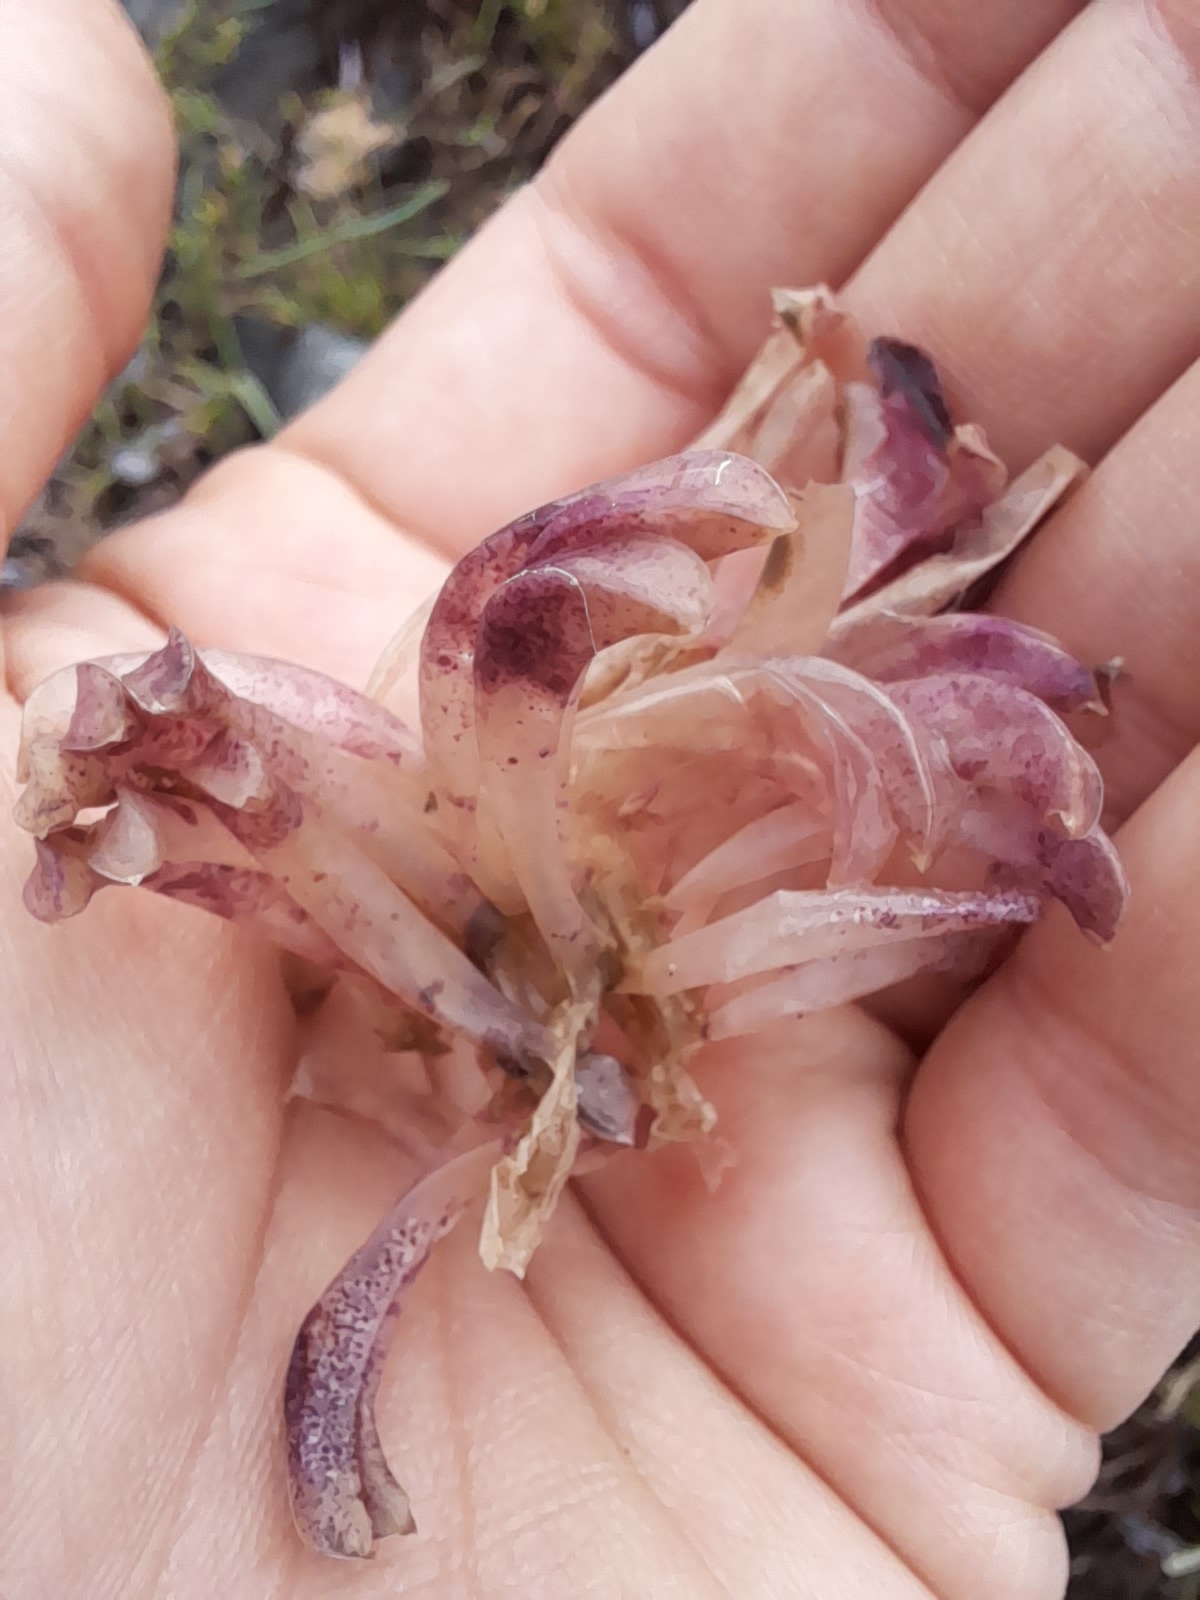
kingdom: Animalia
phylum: Mollusca
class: Gastropoda
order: Neogastropoda
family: Muricidae
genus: Rapana
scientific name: Rapana venosa
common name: Veined rapa whelk
